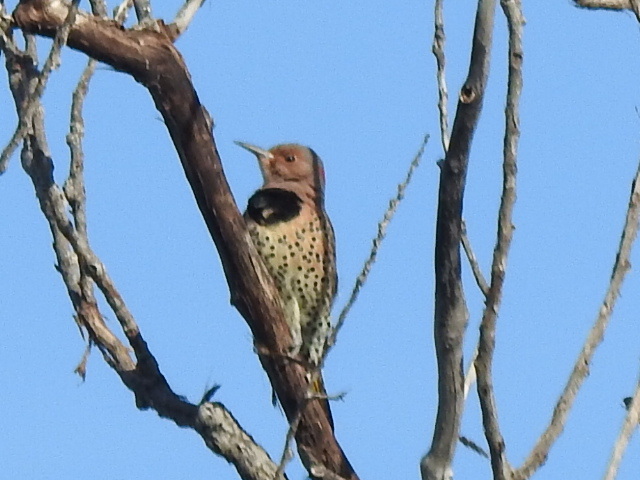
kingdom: Animalia
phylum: Chordata
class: Aves
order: Piciformes
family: Picidae
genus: Colaptes
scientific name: Colaptes auratus
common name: Northern flicker
